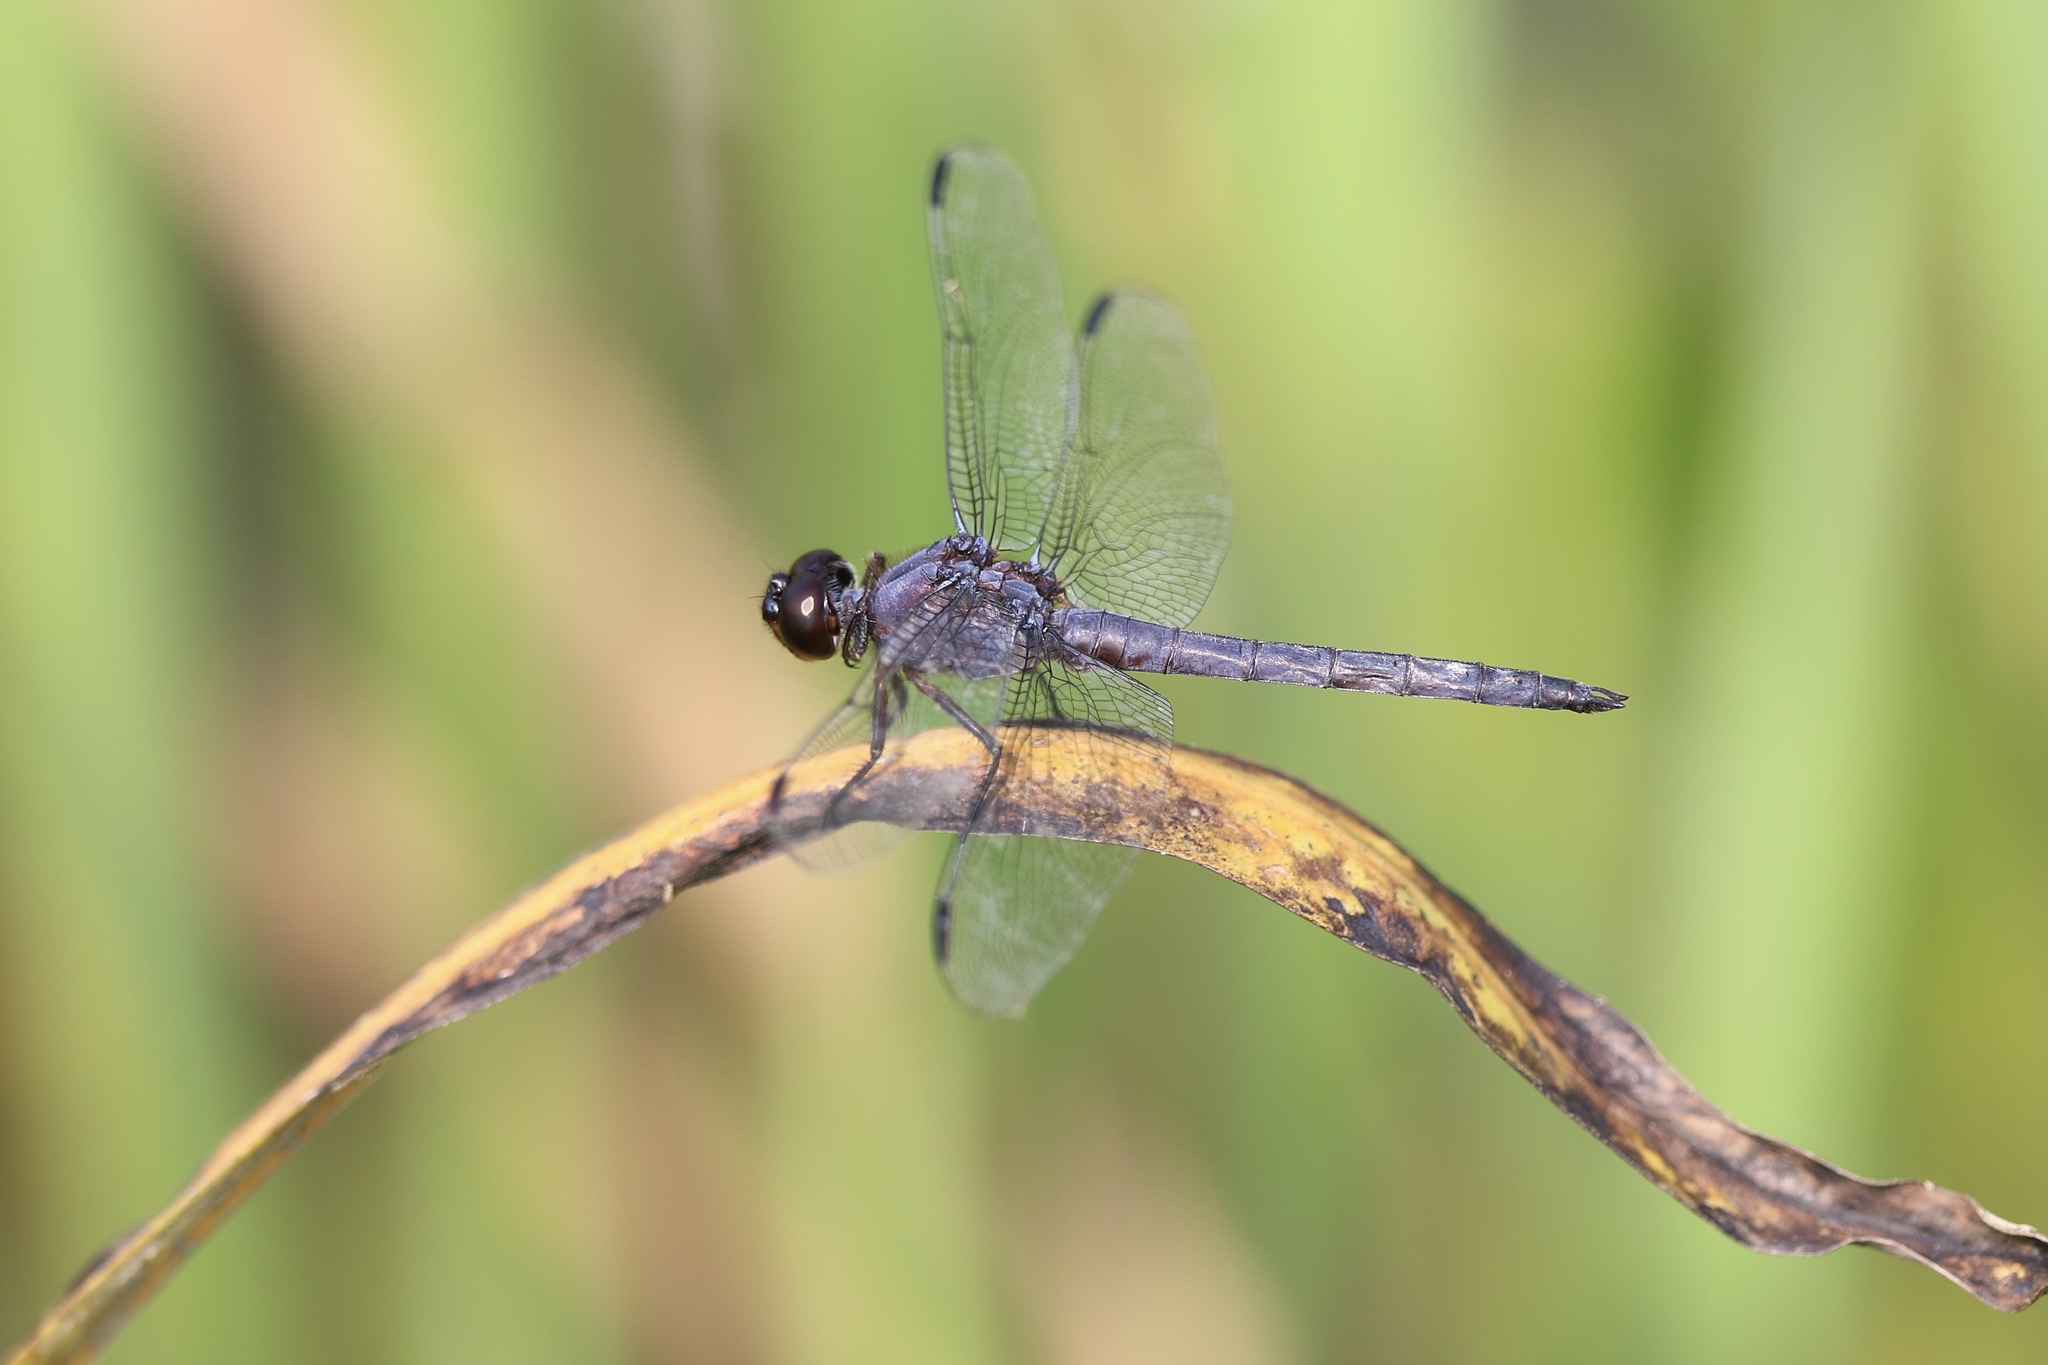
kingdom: Animalia
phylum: Arthropoda
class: Insecta
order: Odonata
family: Libellulidae
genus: Libellula
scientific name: Libellula incesta
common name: Slaty skimmer
